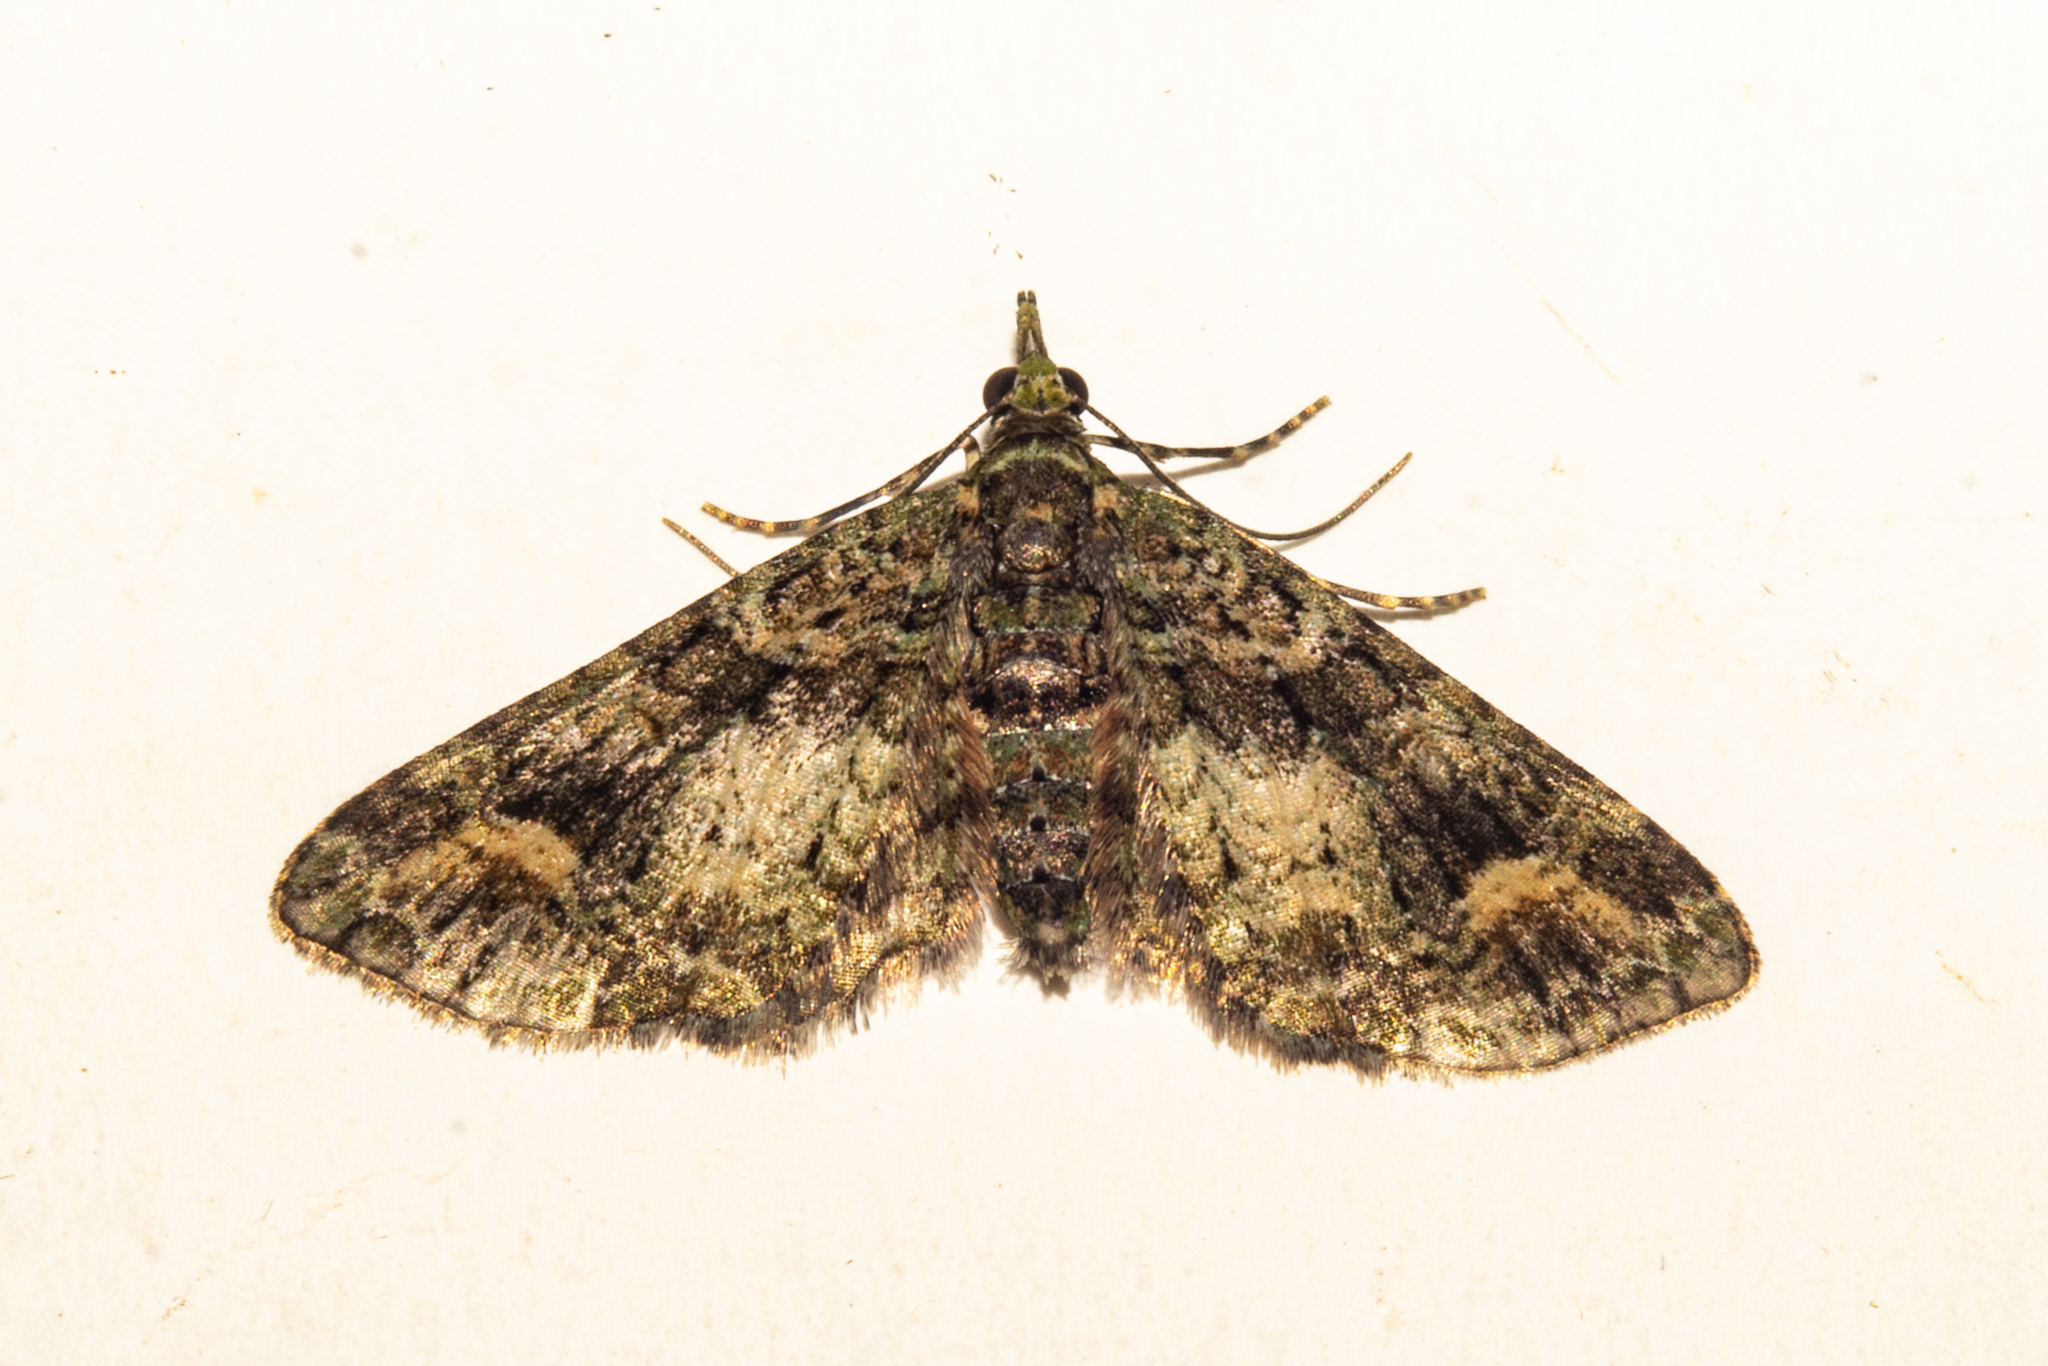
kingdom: Animalia
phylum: Arthropoda
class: Insecta
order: Lepidoptera
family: Geometridae
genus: Idaea
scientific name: Idaea mutanda
